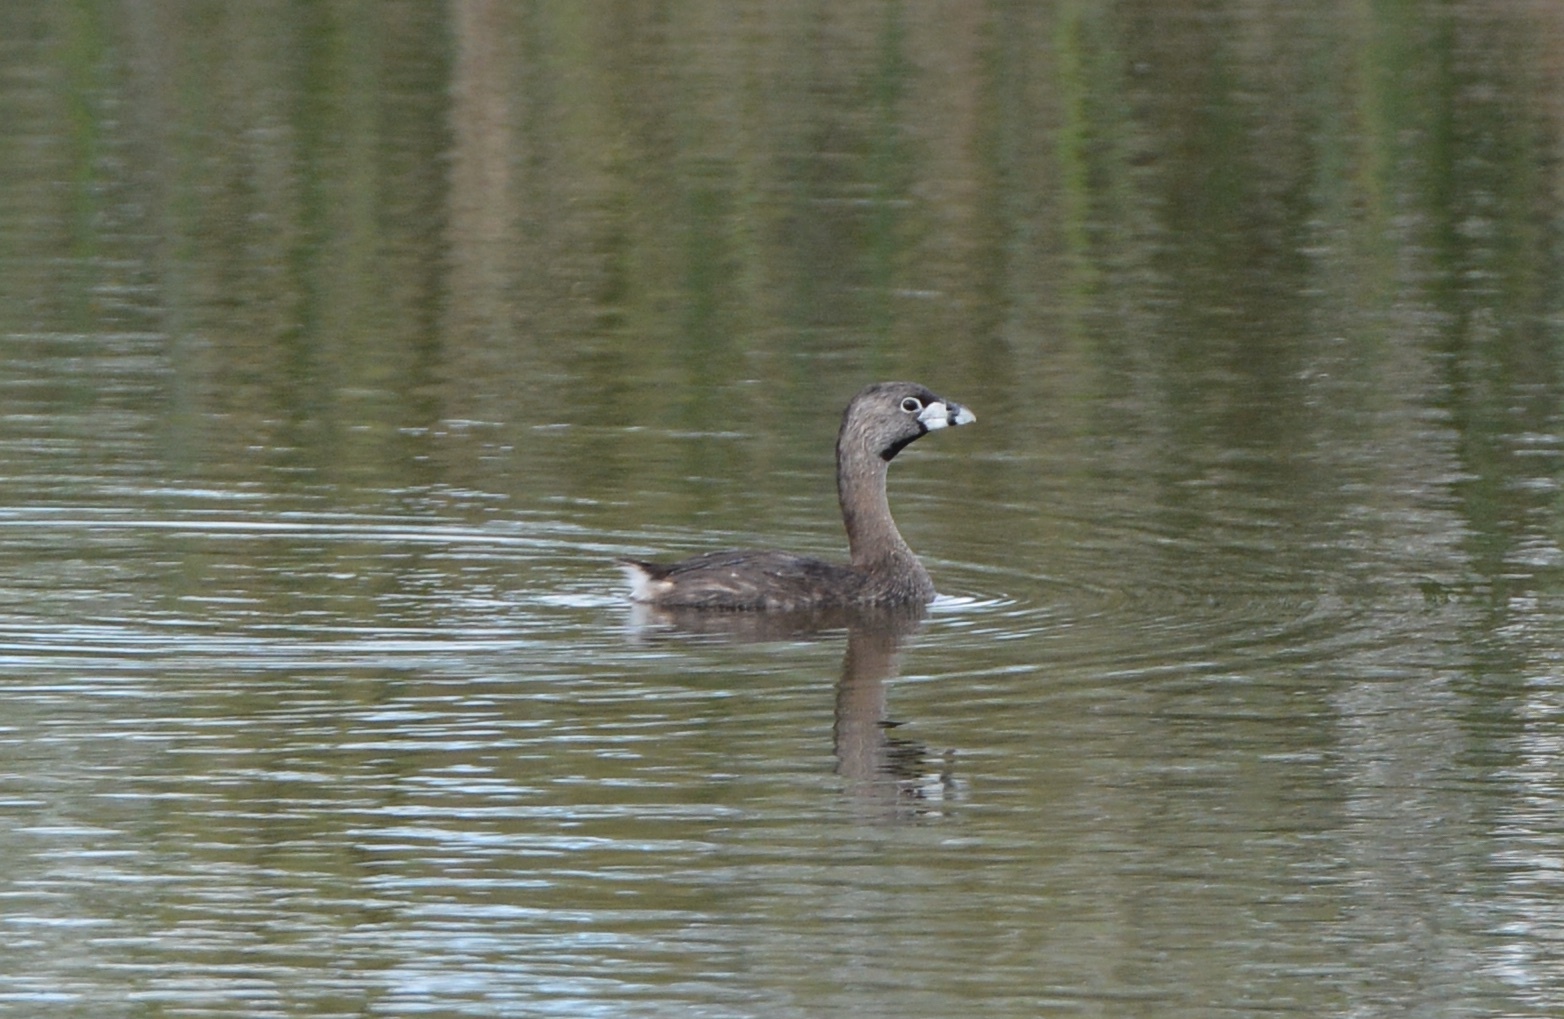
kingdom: Animalia
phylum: Chordata
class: Aves
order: Podicipediformes
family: Podicipedidae
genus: Podilymbus
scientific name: Podilymbus podiceps
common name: Pied-billed grebe
